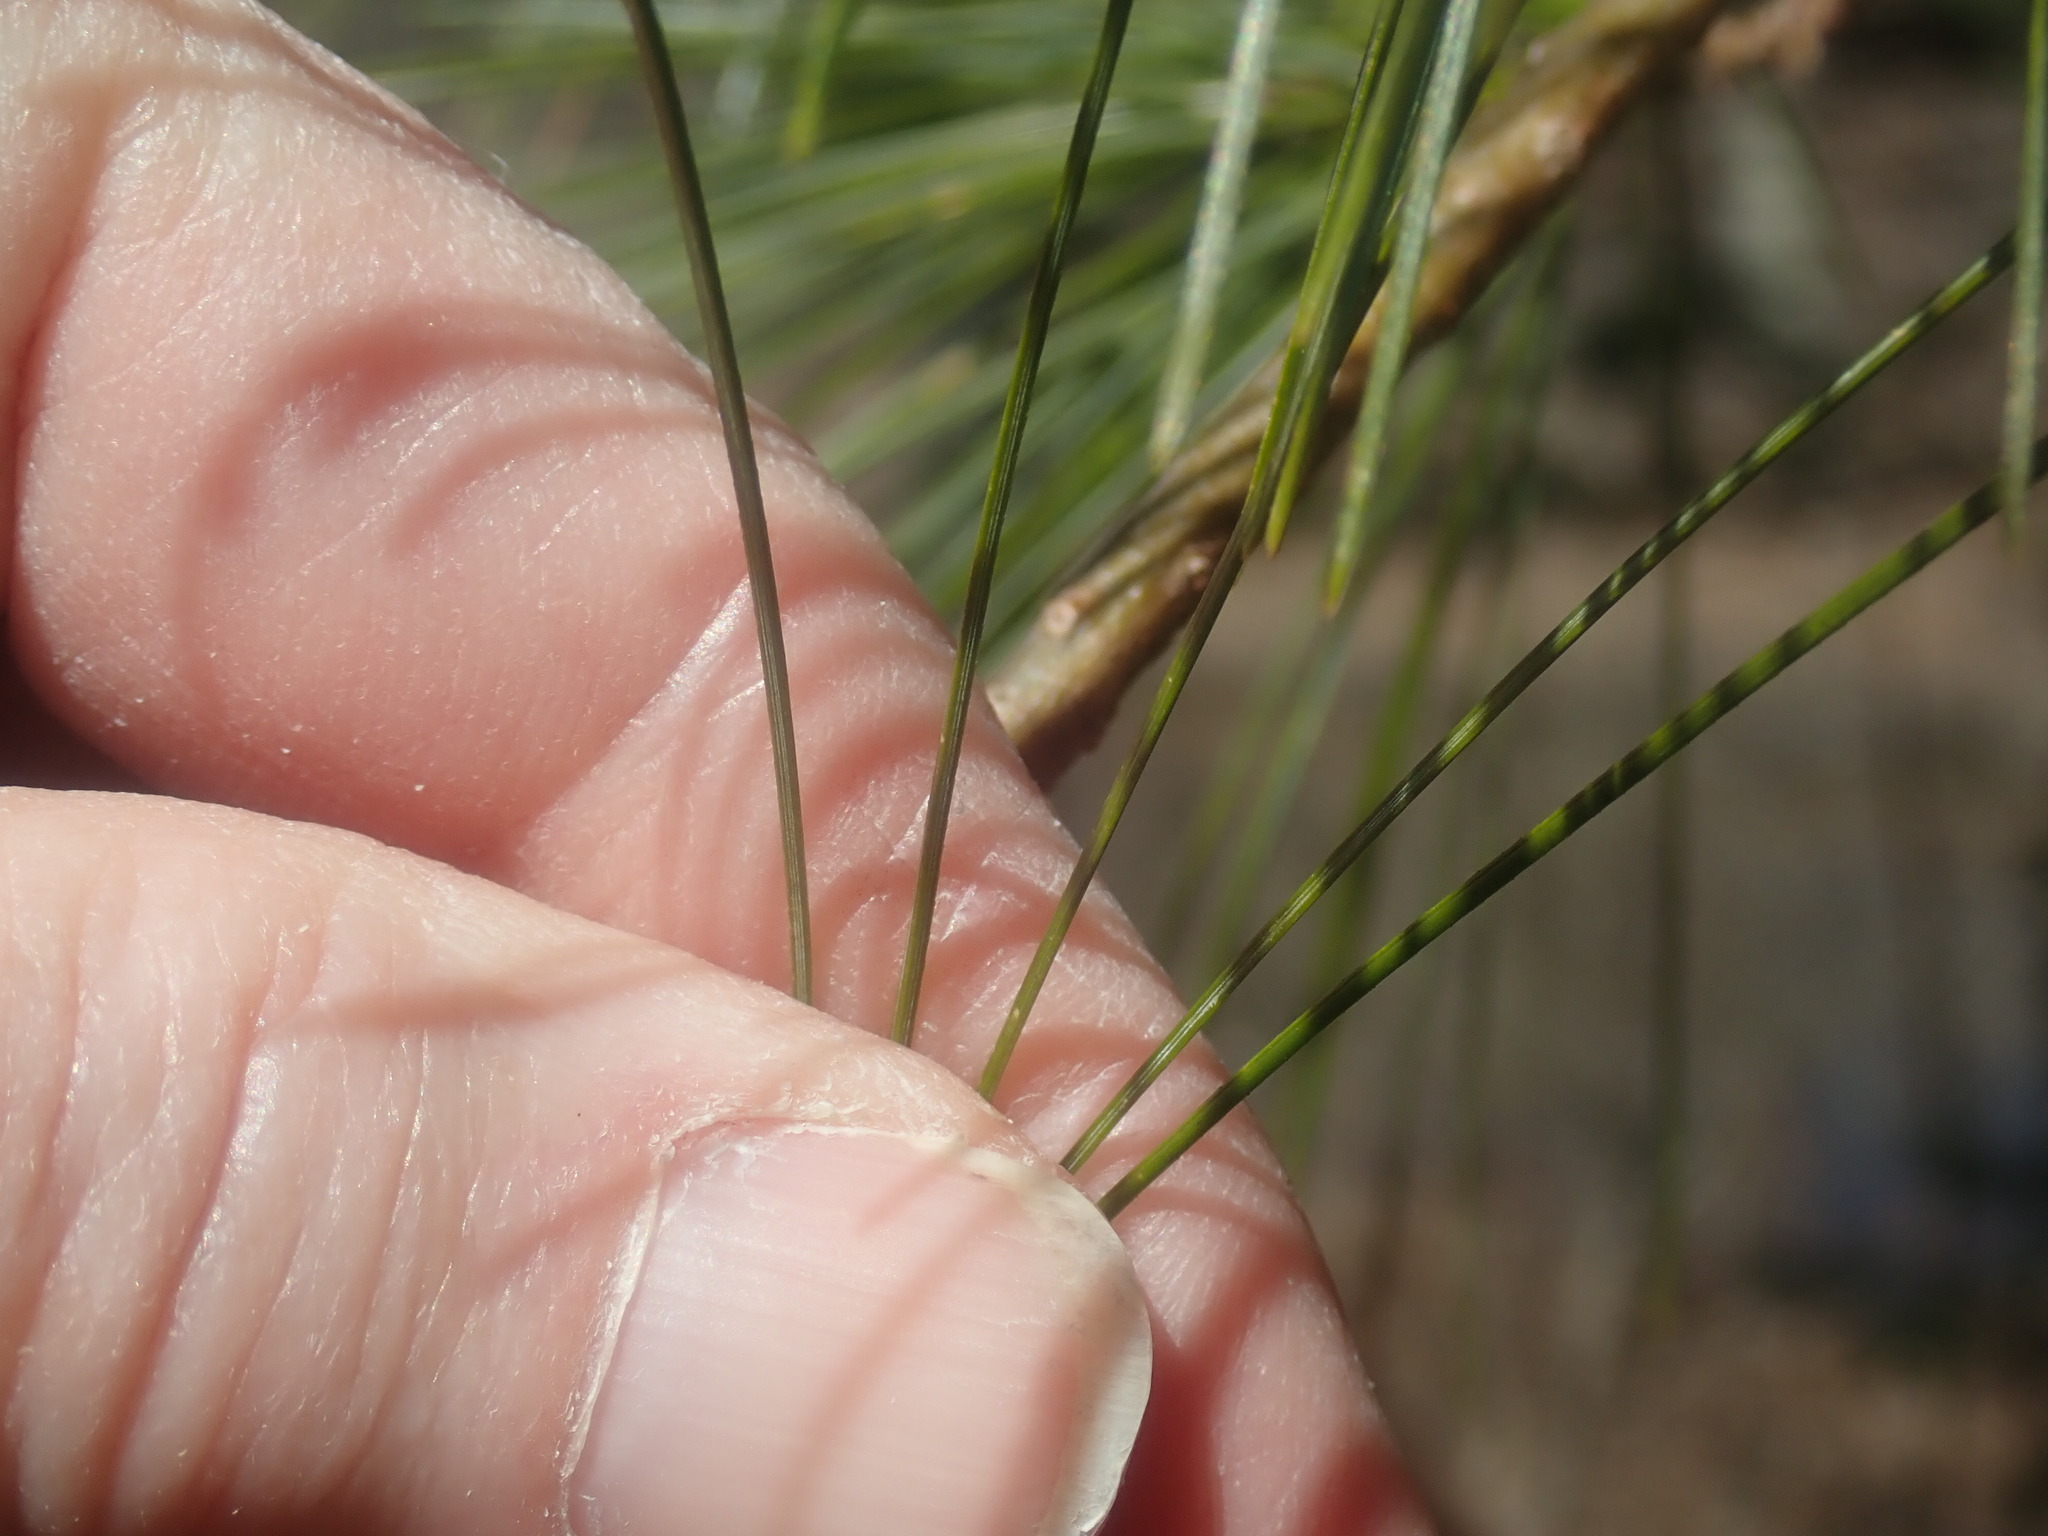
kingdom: Plantae
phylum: Tracheophyta
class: Pinopsida
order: Pinales
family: Pinaceae
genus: Pinus
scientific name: Pinus strobus
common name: Weymouth pine
